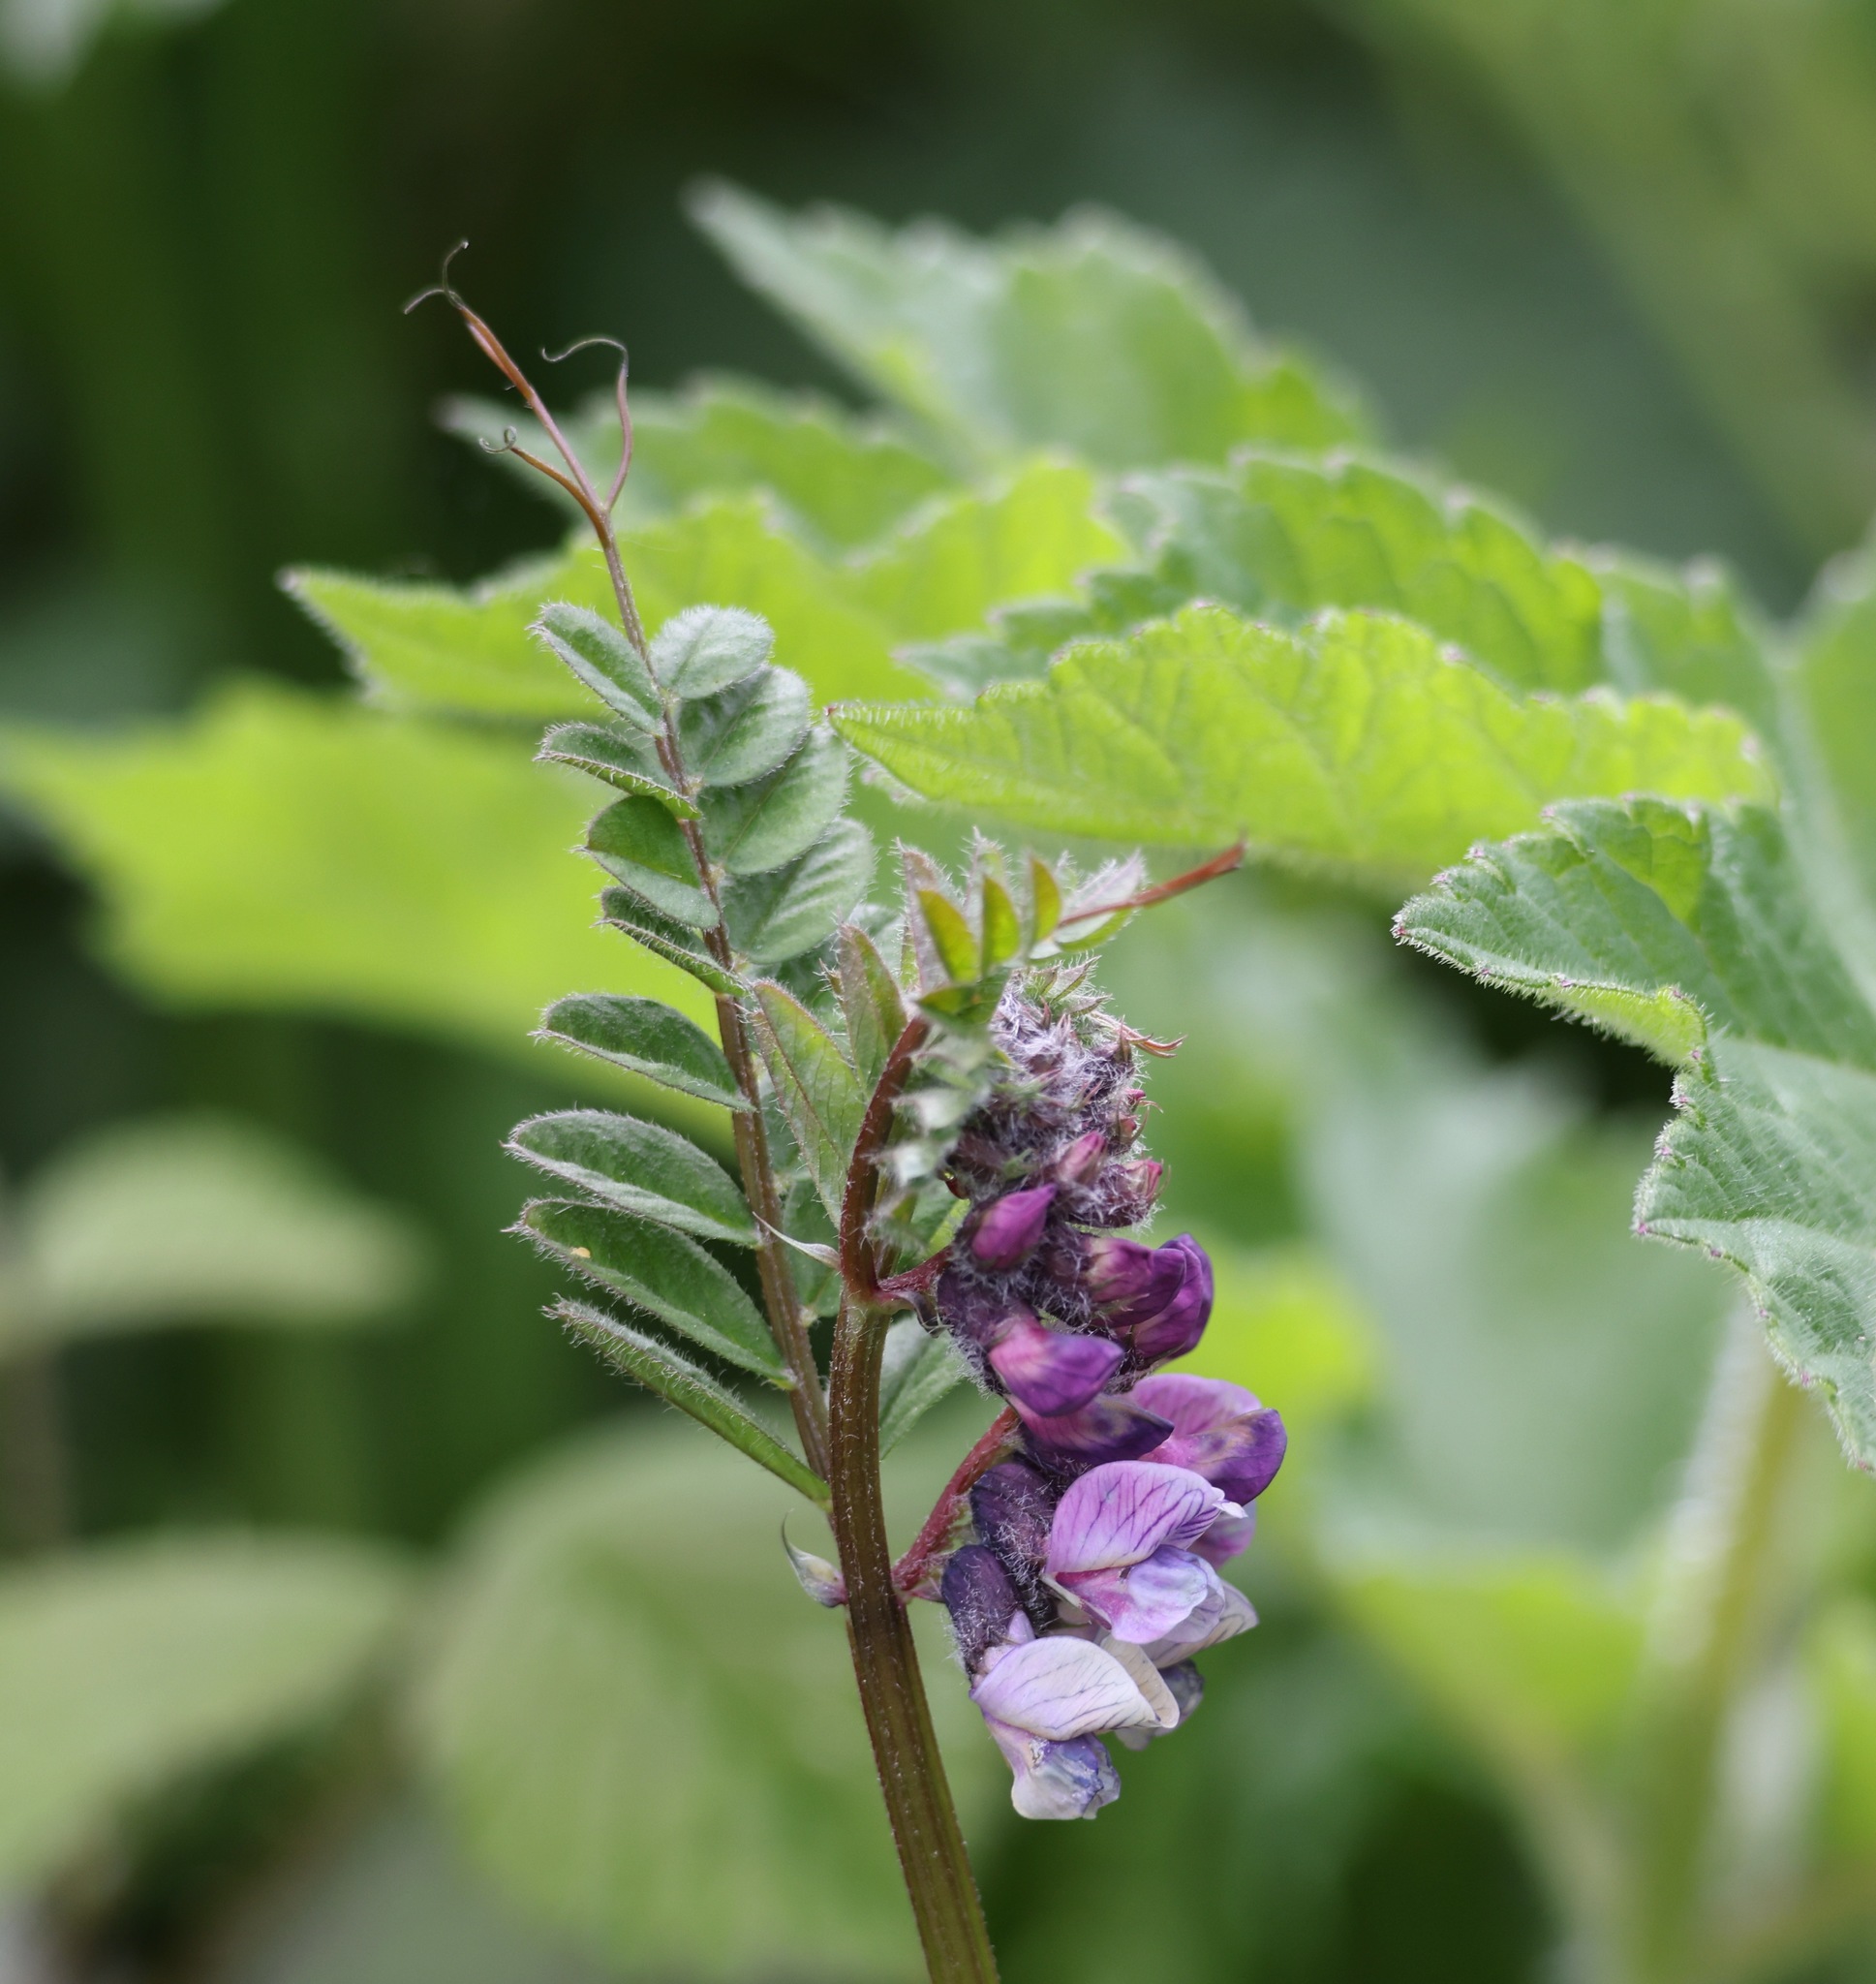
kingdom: Plantae
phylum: Tracheophyta
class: Magnoliopsida
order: Fabales
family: Fabaceae
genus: Vicia
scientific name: Vicia sepium
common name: Bush vetch
